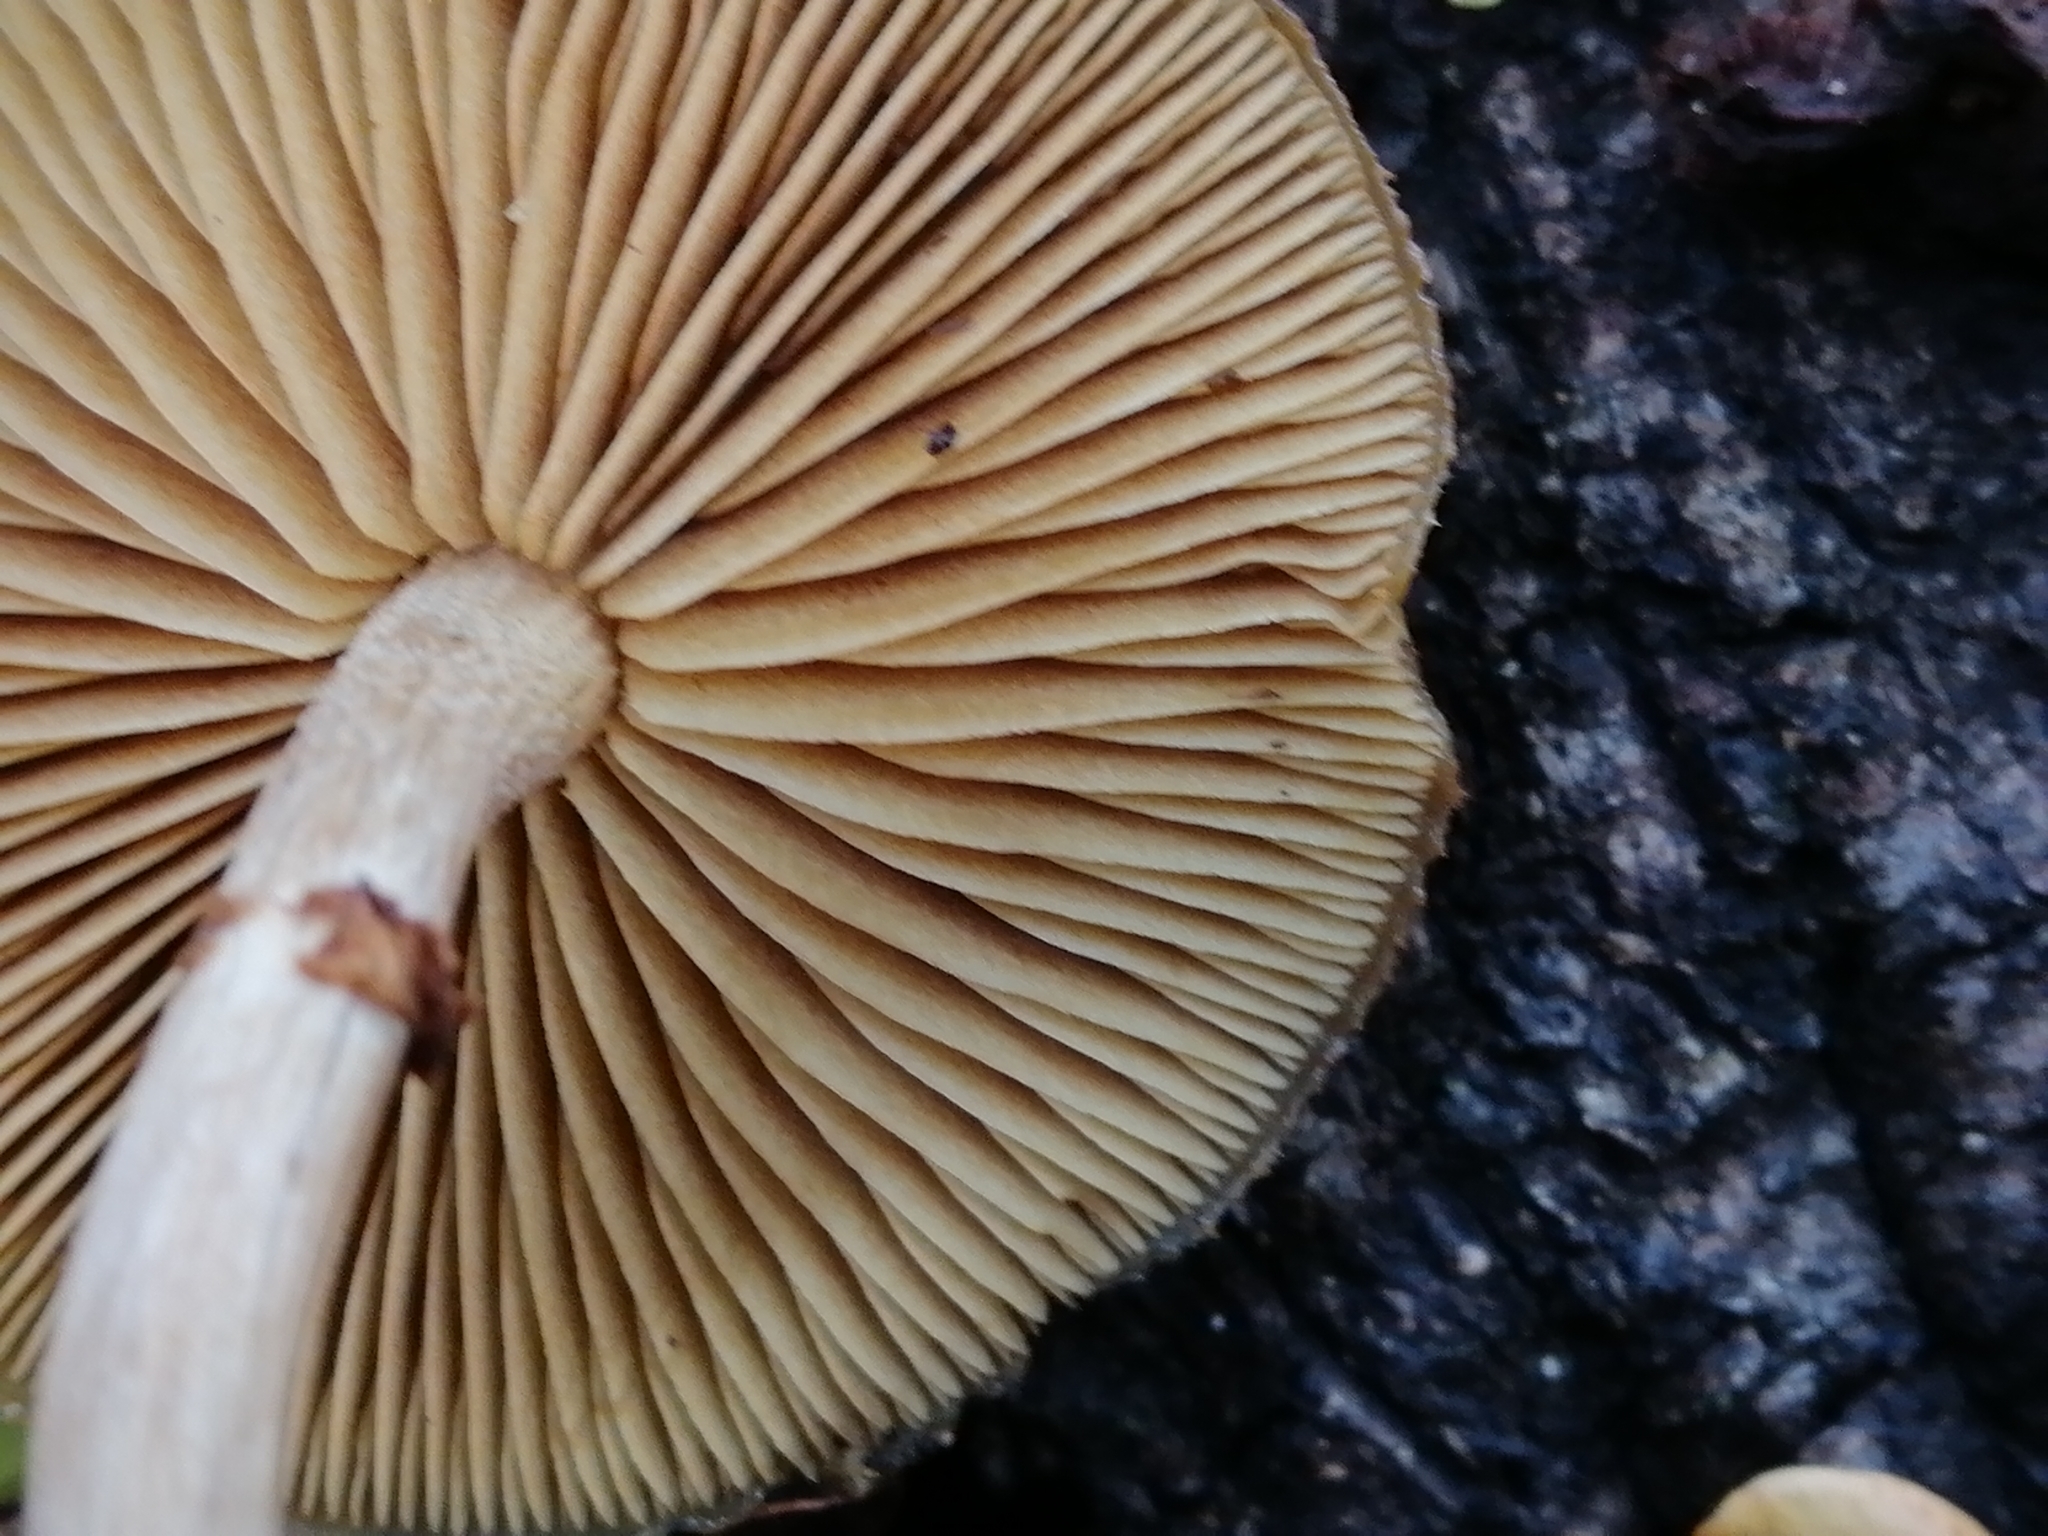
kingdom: Fungi
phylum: Basidiomycota
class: Agaricomycetes
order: Agaricales
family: Hymenogastraceae
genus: Galerina
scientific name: Galerina patagonica
